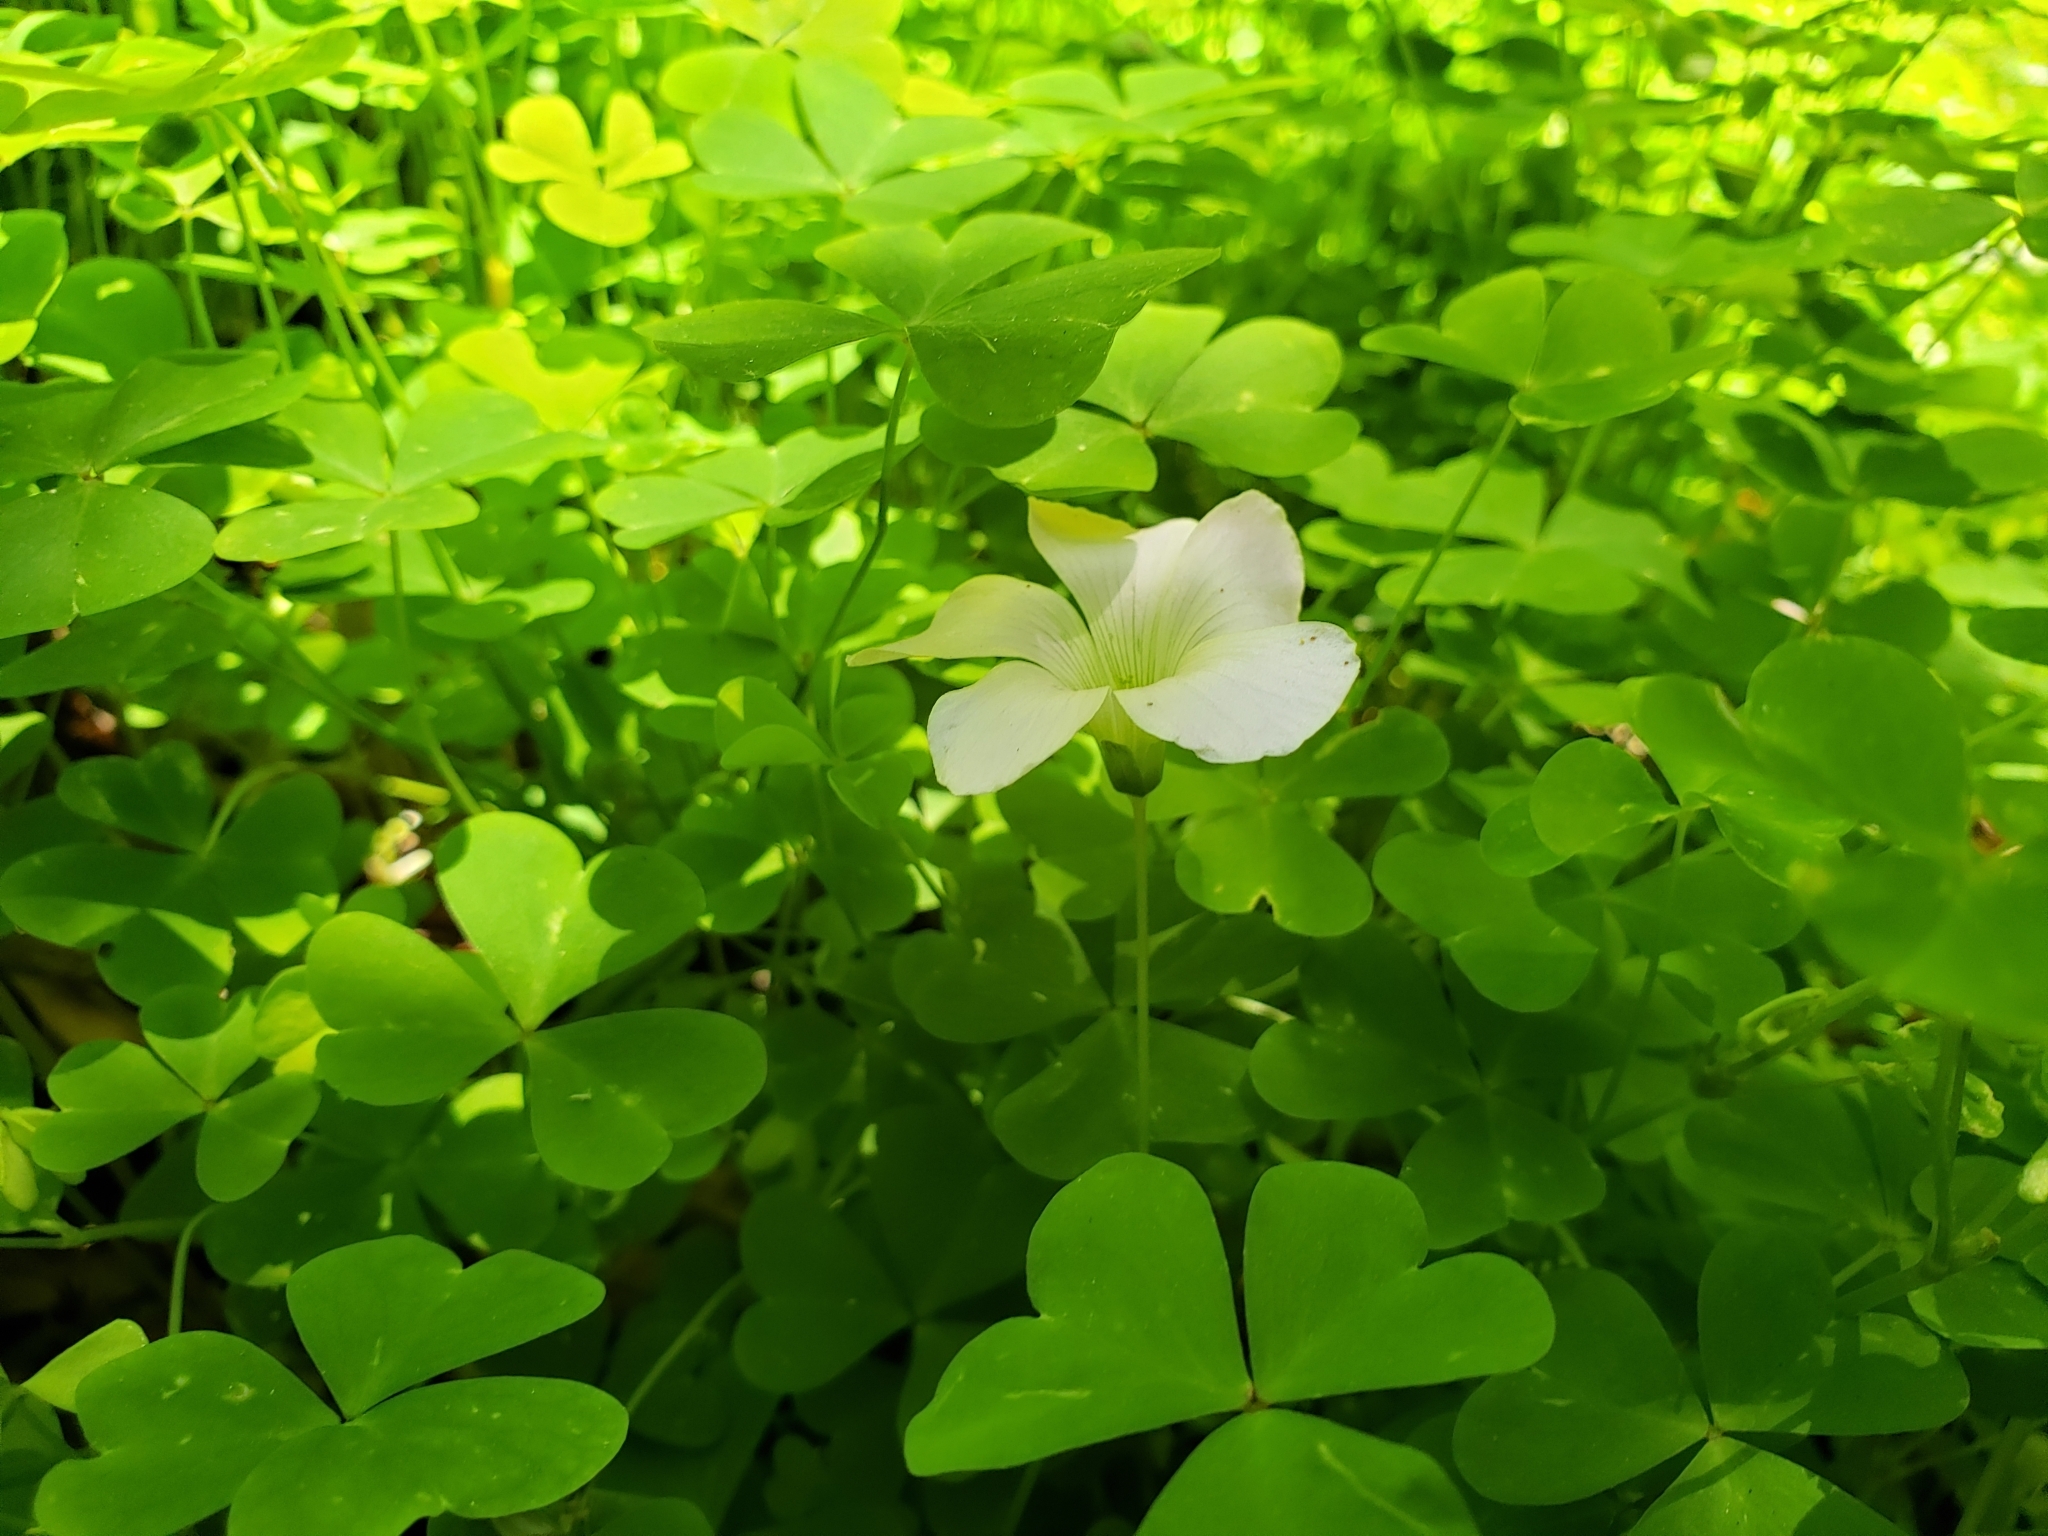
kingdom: Plantae
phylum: Tracheophyta
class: Magnoliopsida
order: Oxalidales
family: Oxalidaceae
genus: Oxalis
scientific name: Oxalis incarnata
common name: Pale pink-sorrel
